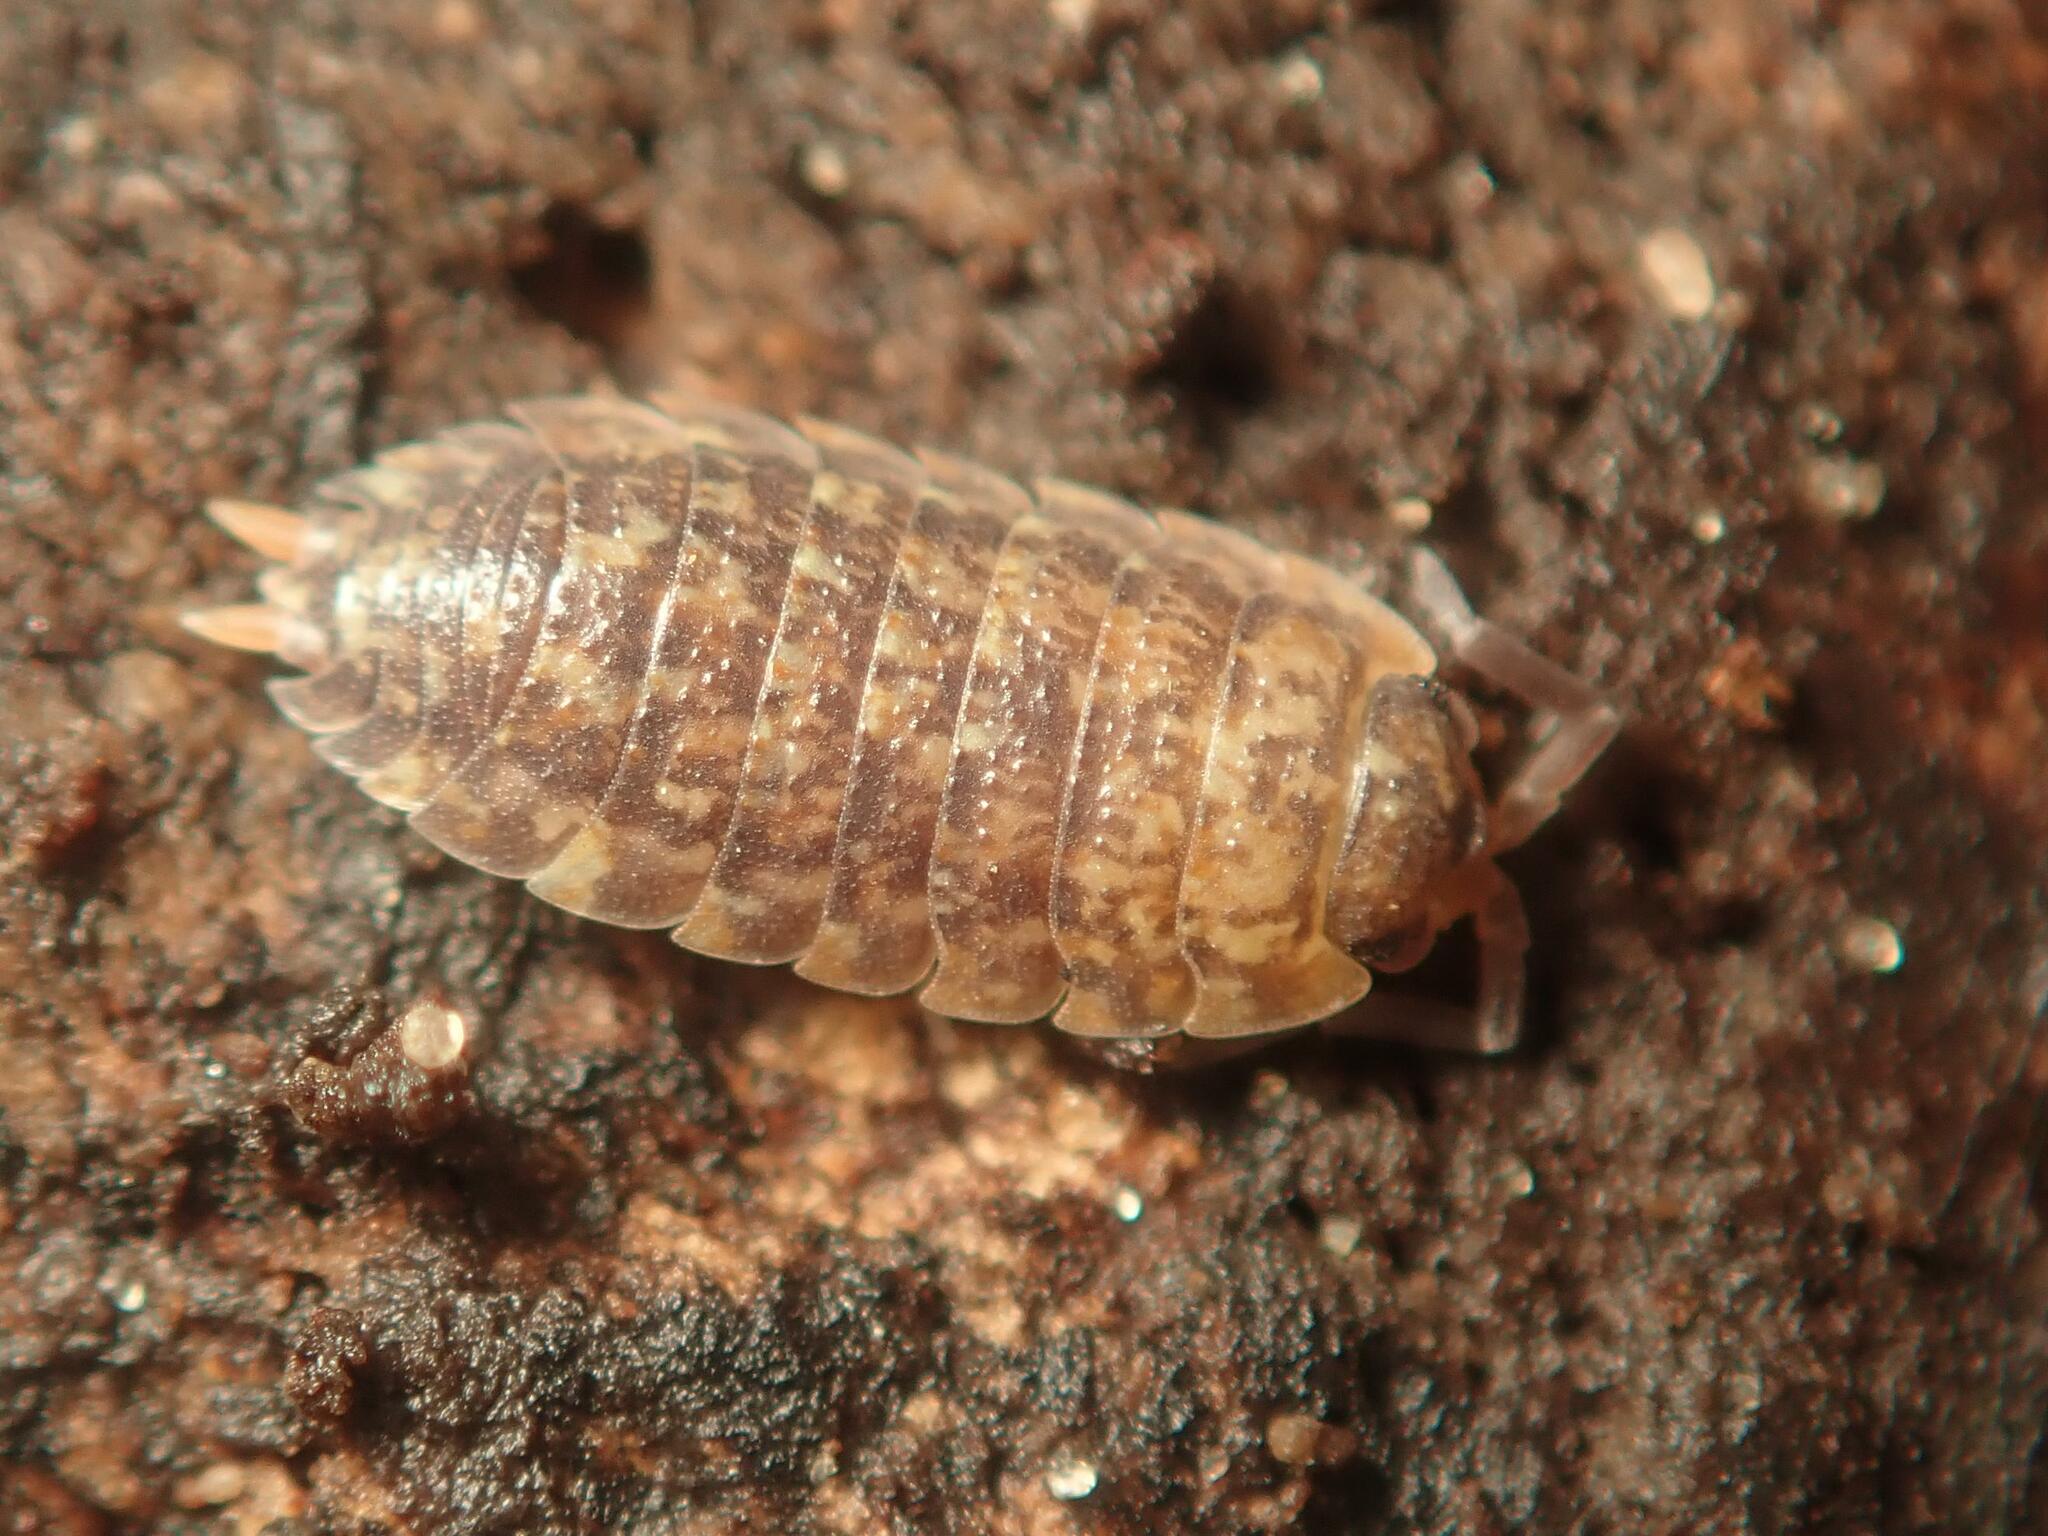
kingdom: Animalia
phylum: Arthropoda
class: Malacostraca
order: Isopoda
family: Porcellionidae
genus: Porcellio
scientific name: Porcellio scaber
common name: Common rough woodlouse
